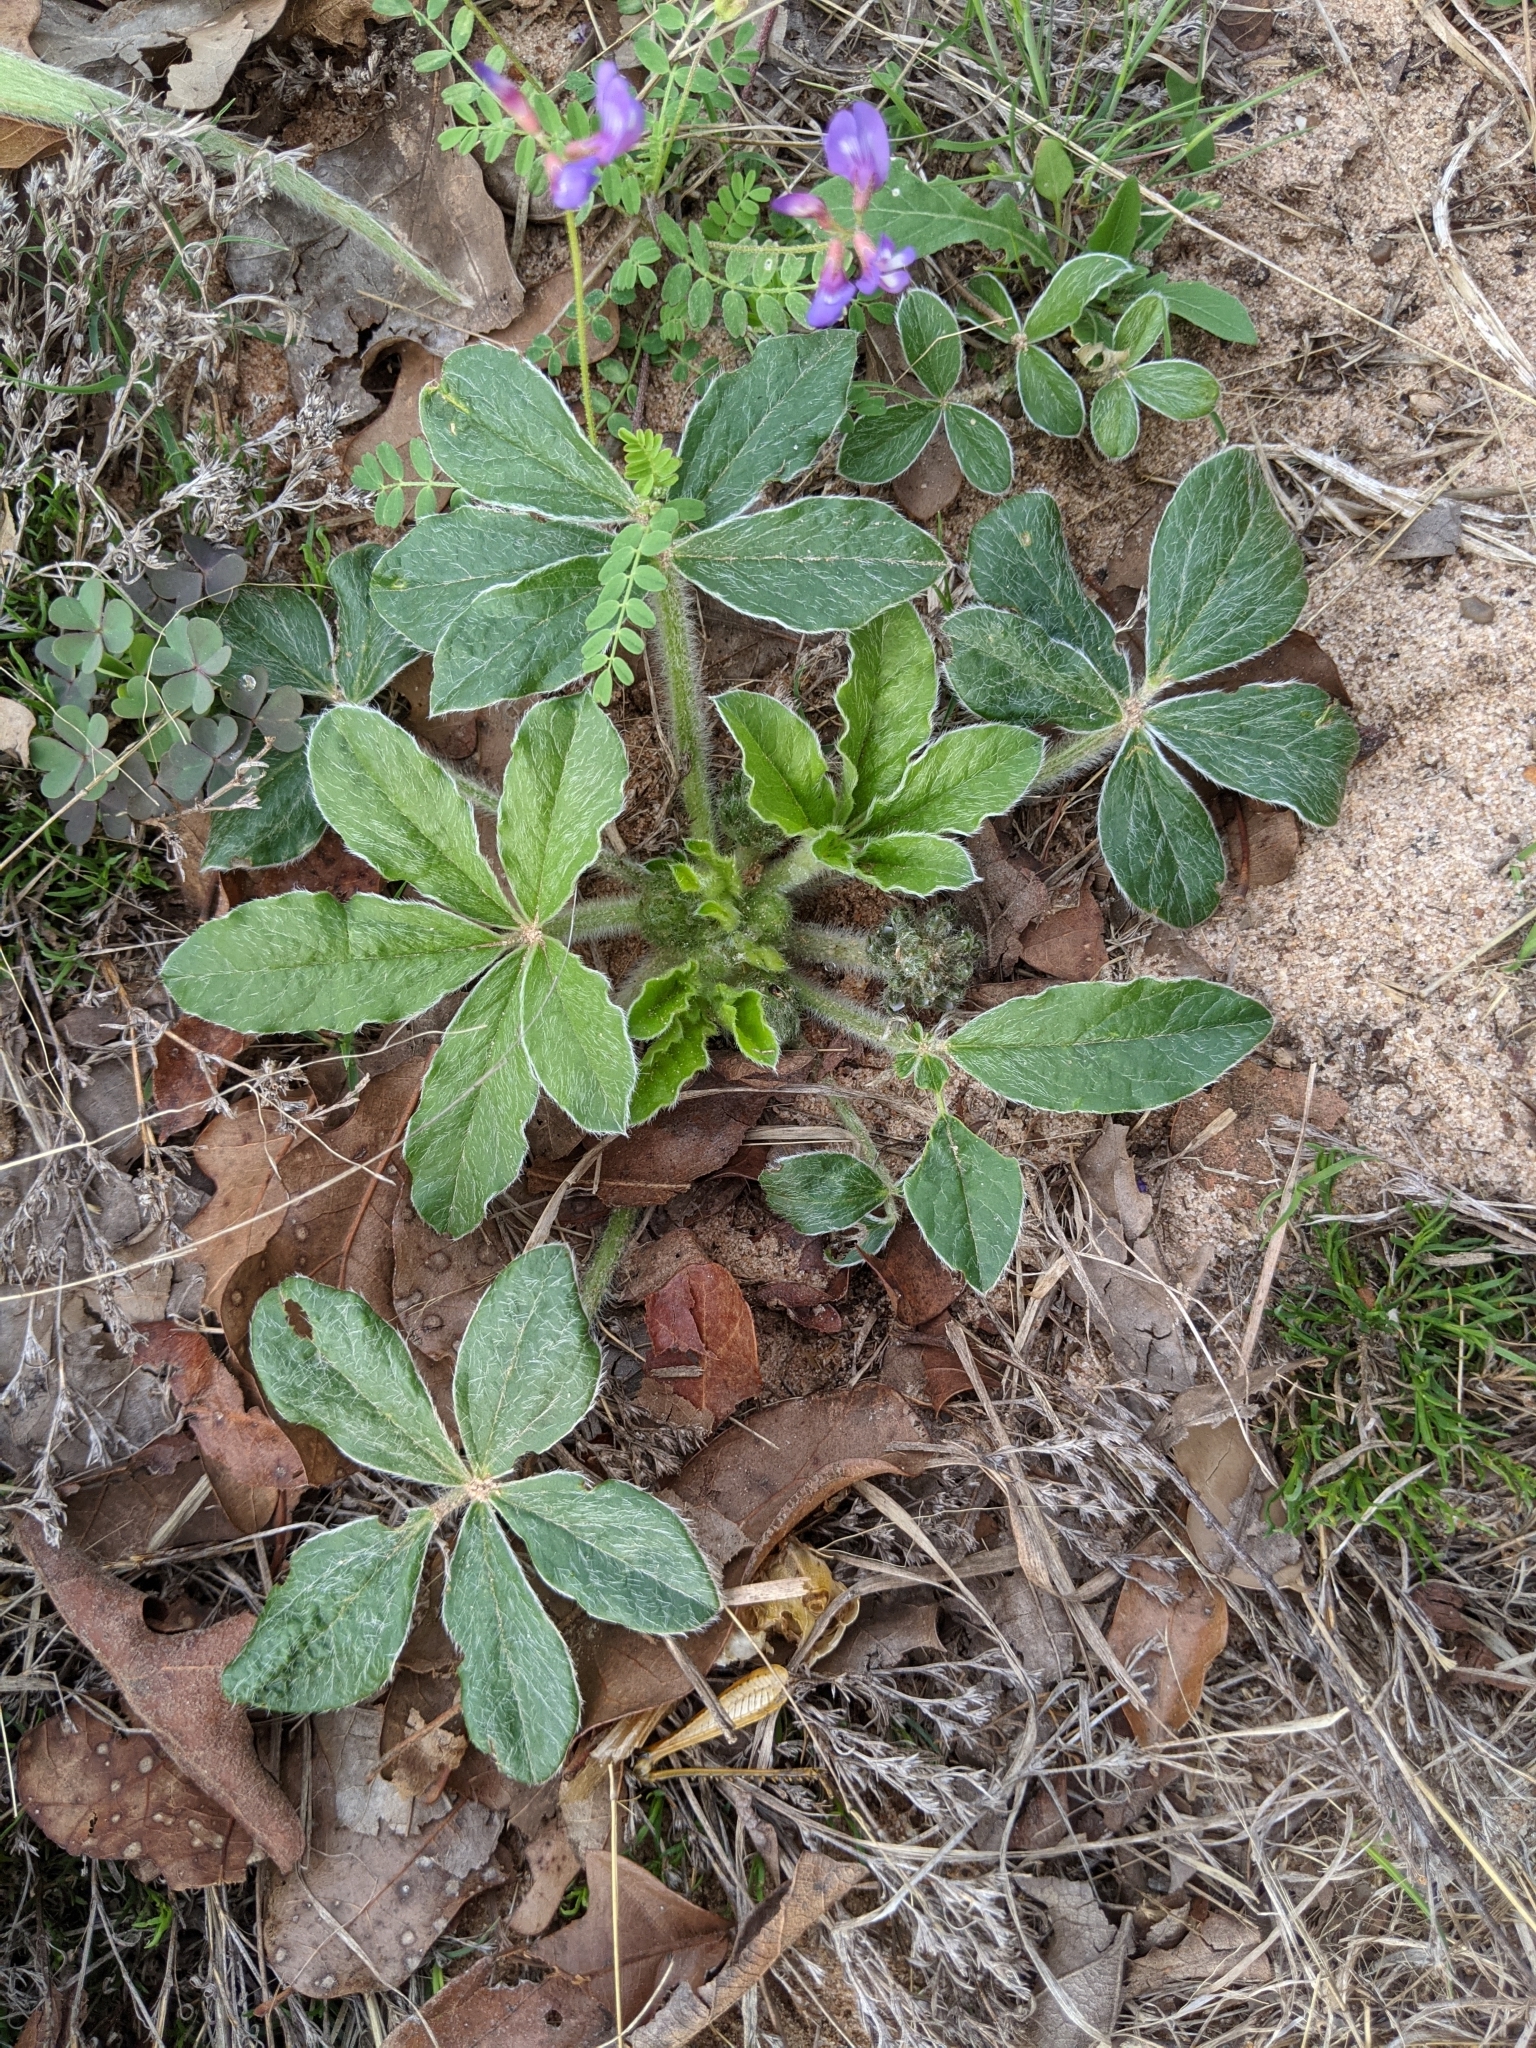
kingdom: Plantae
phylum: Tracheophyta
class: Magnoliopsida
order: Fabales
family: Fabaceae
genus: Pediomelum
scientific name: Pediomelum hypogaeum
